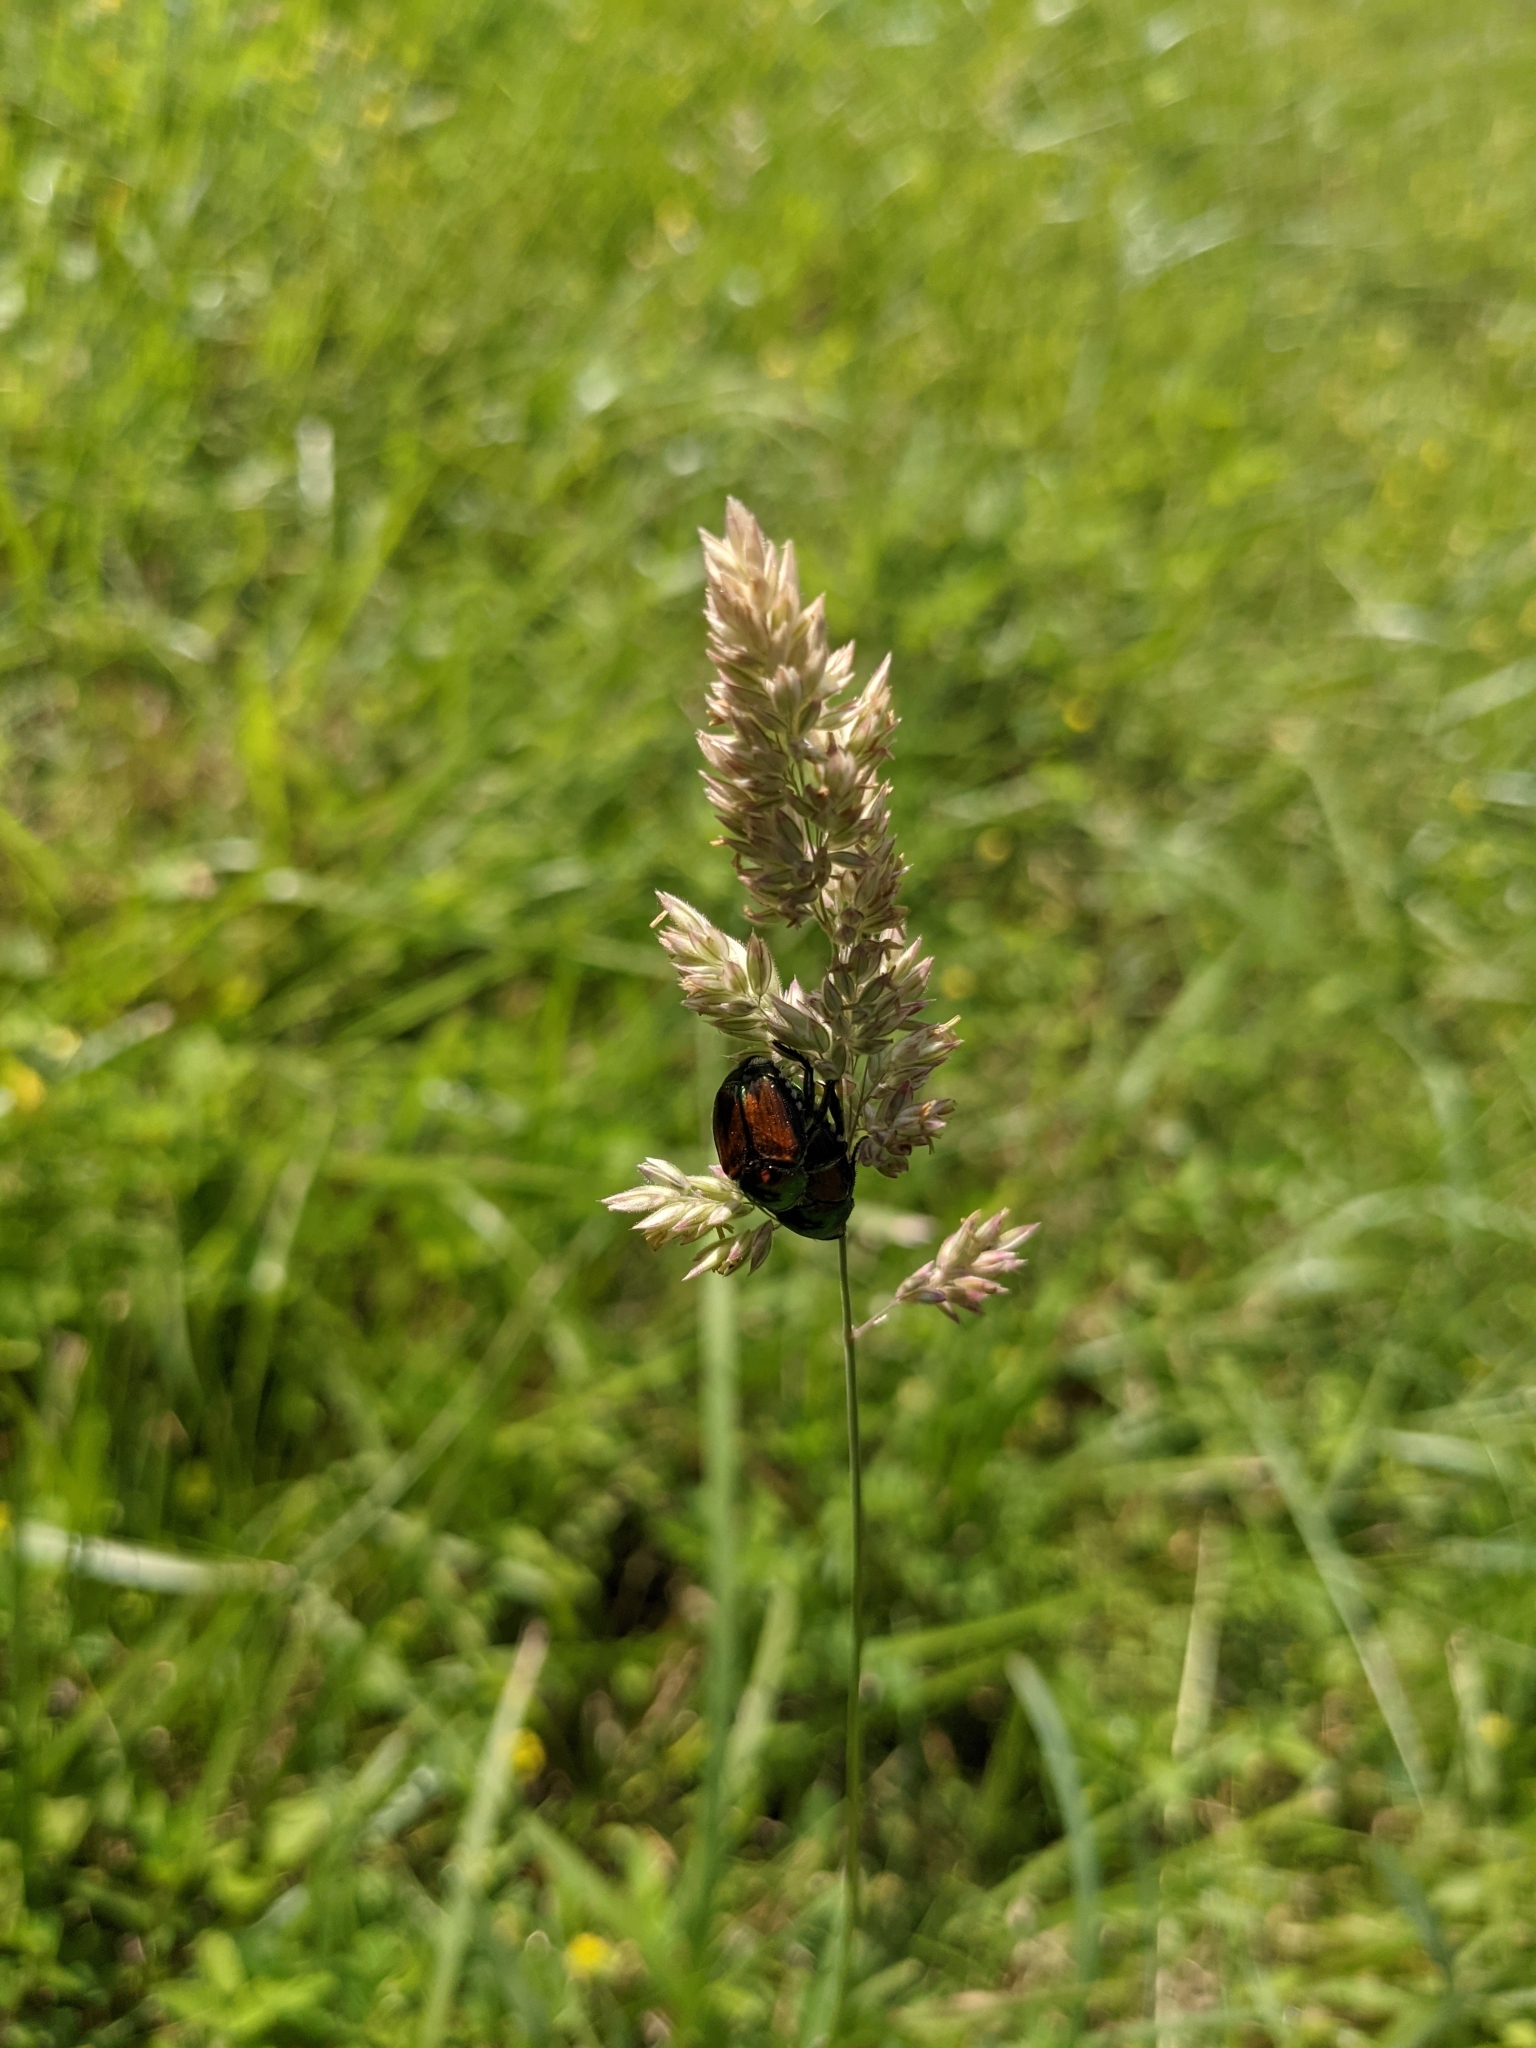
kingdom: Animalia
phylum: Arthropoda
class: Insecta
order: Coleoptera
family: Scarabaeidae
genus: Popillia
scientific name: Popillia japonica
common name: Japanese beetle
